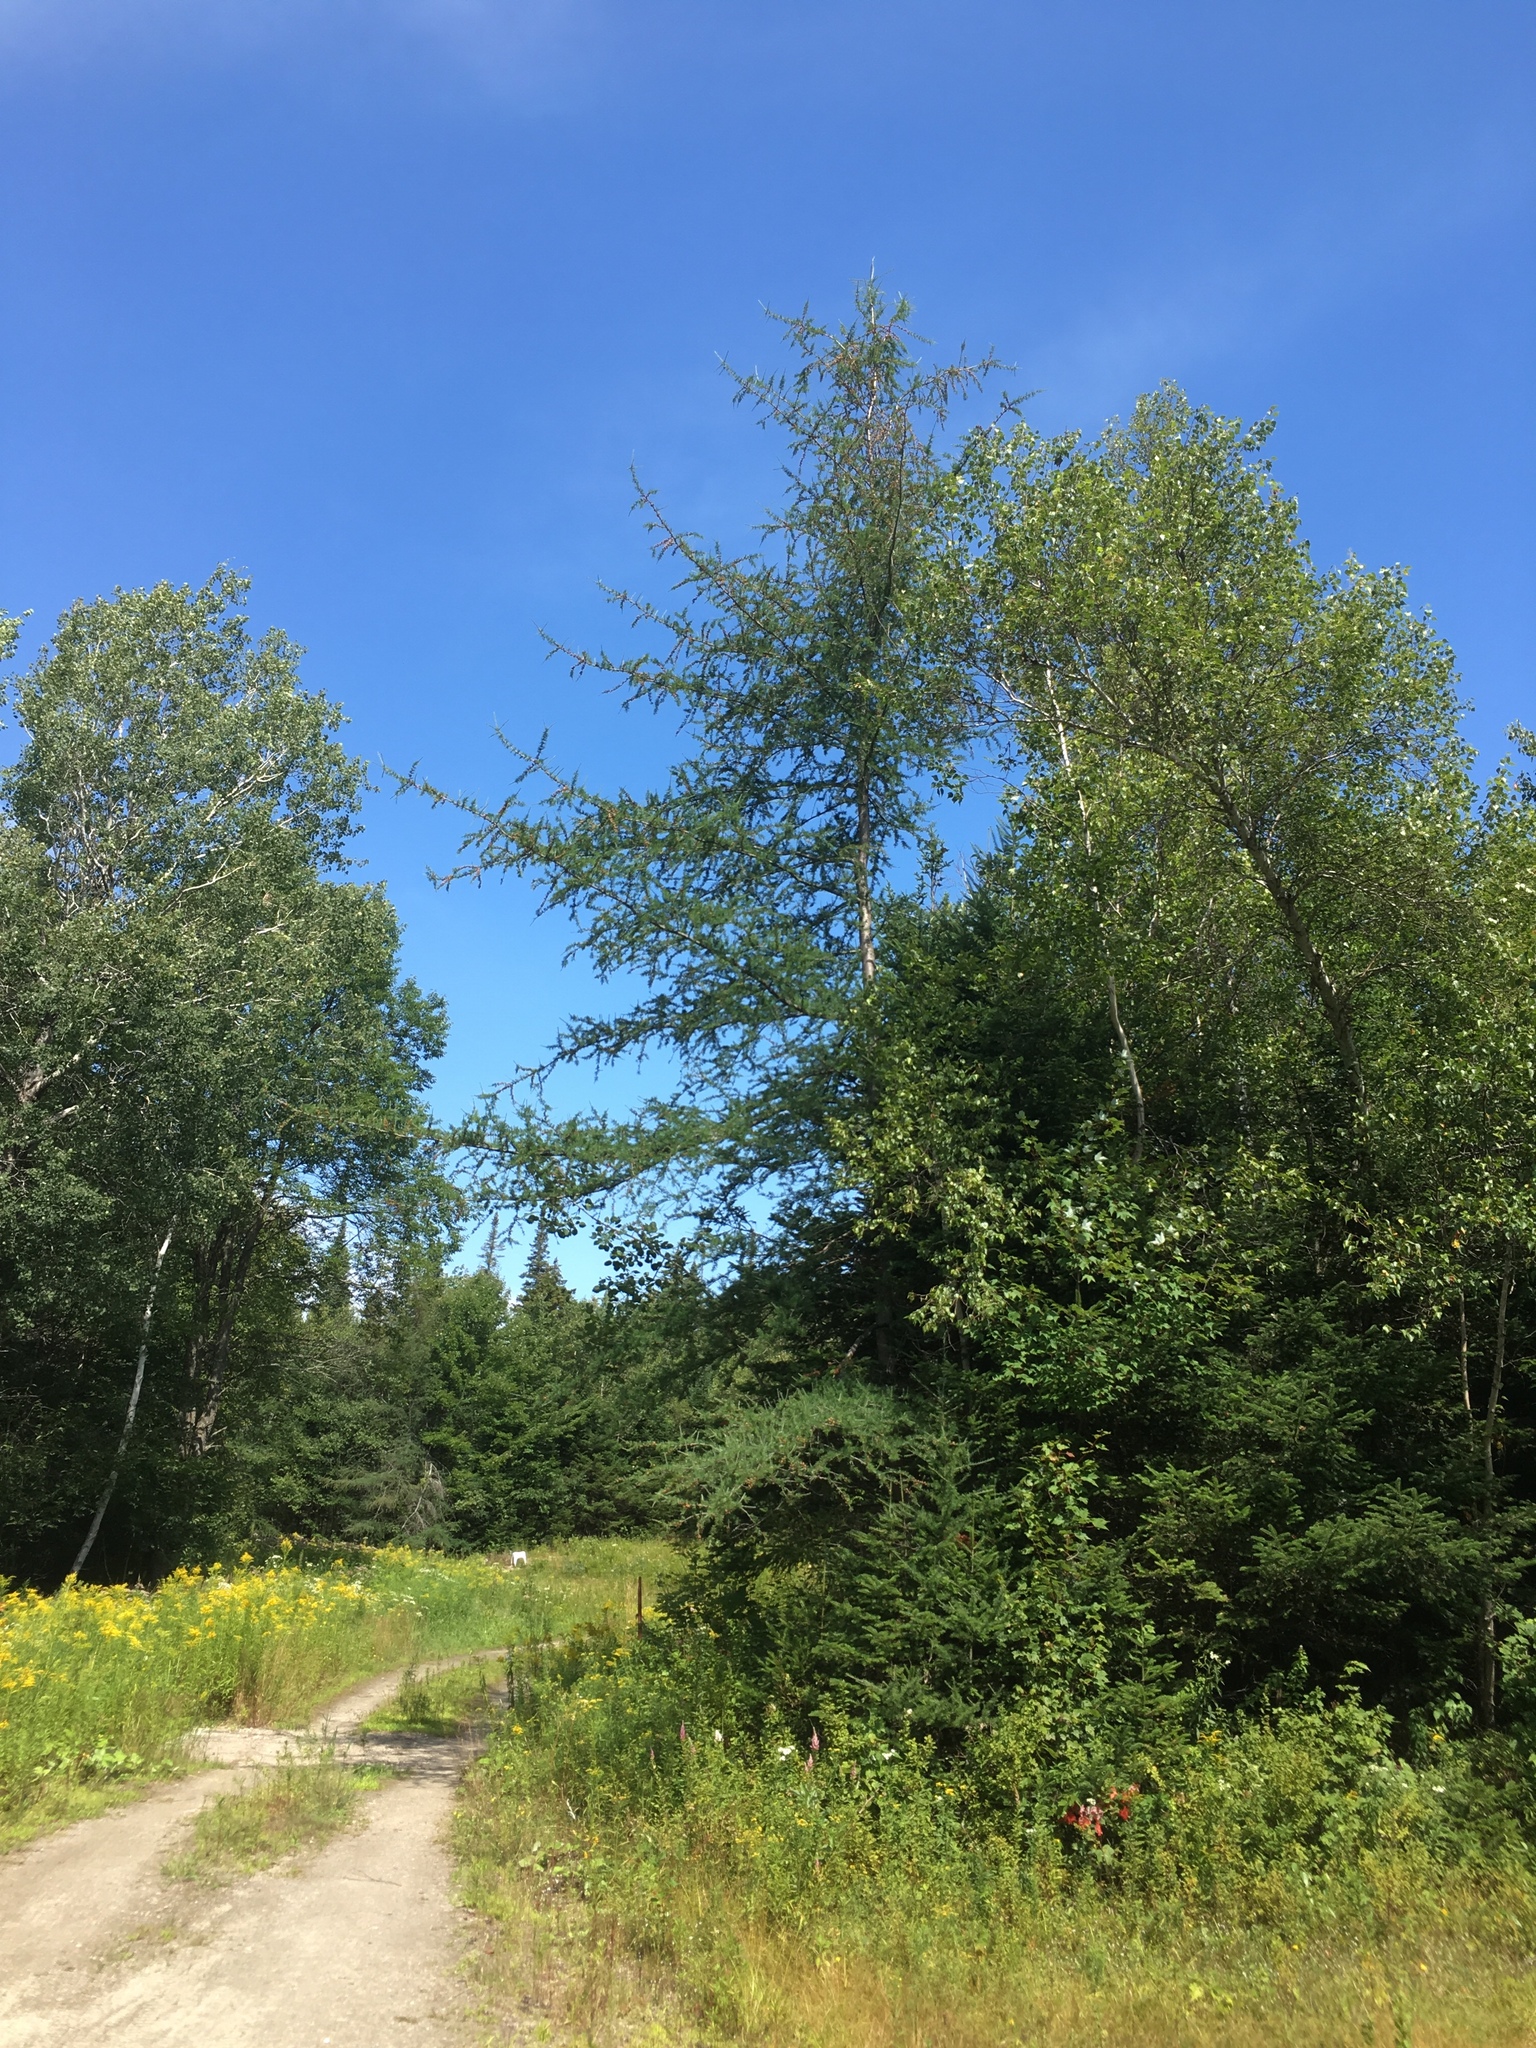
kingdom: Plantae
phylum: Tracheophyta
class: Pinopsida
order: Pinales
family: Pinaceae
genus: Larix
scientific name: Larix laricina
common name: American larch
